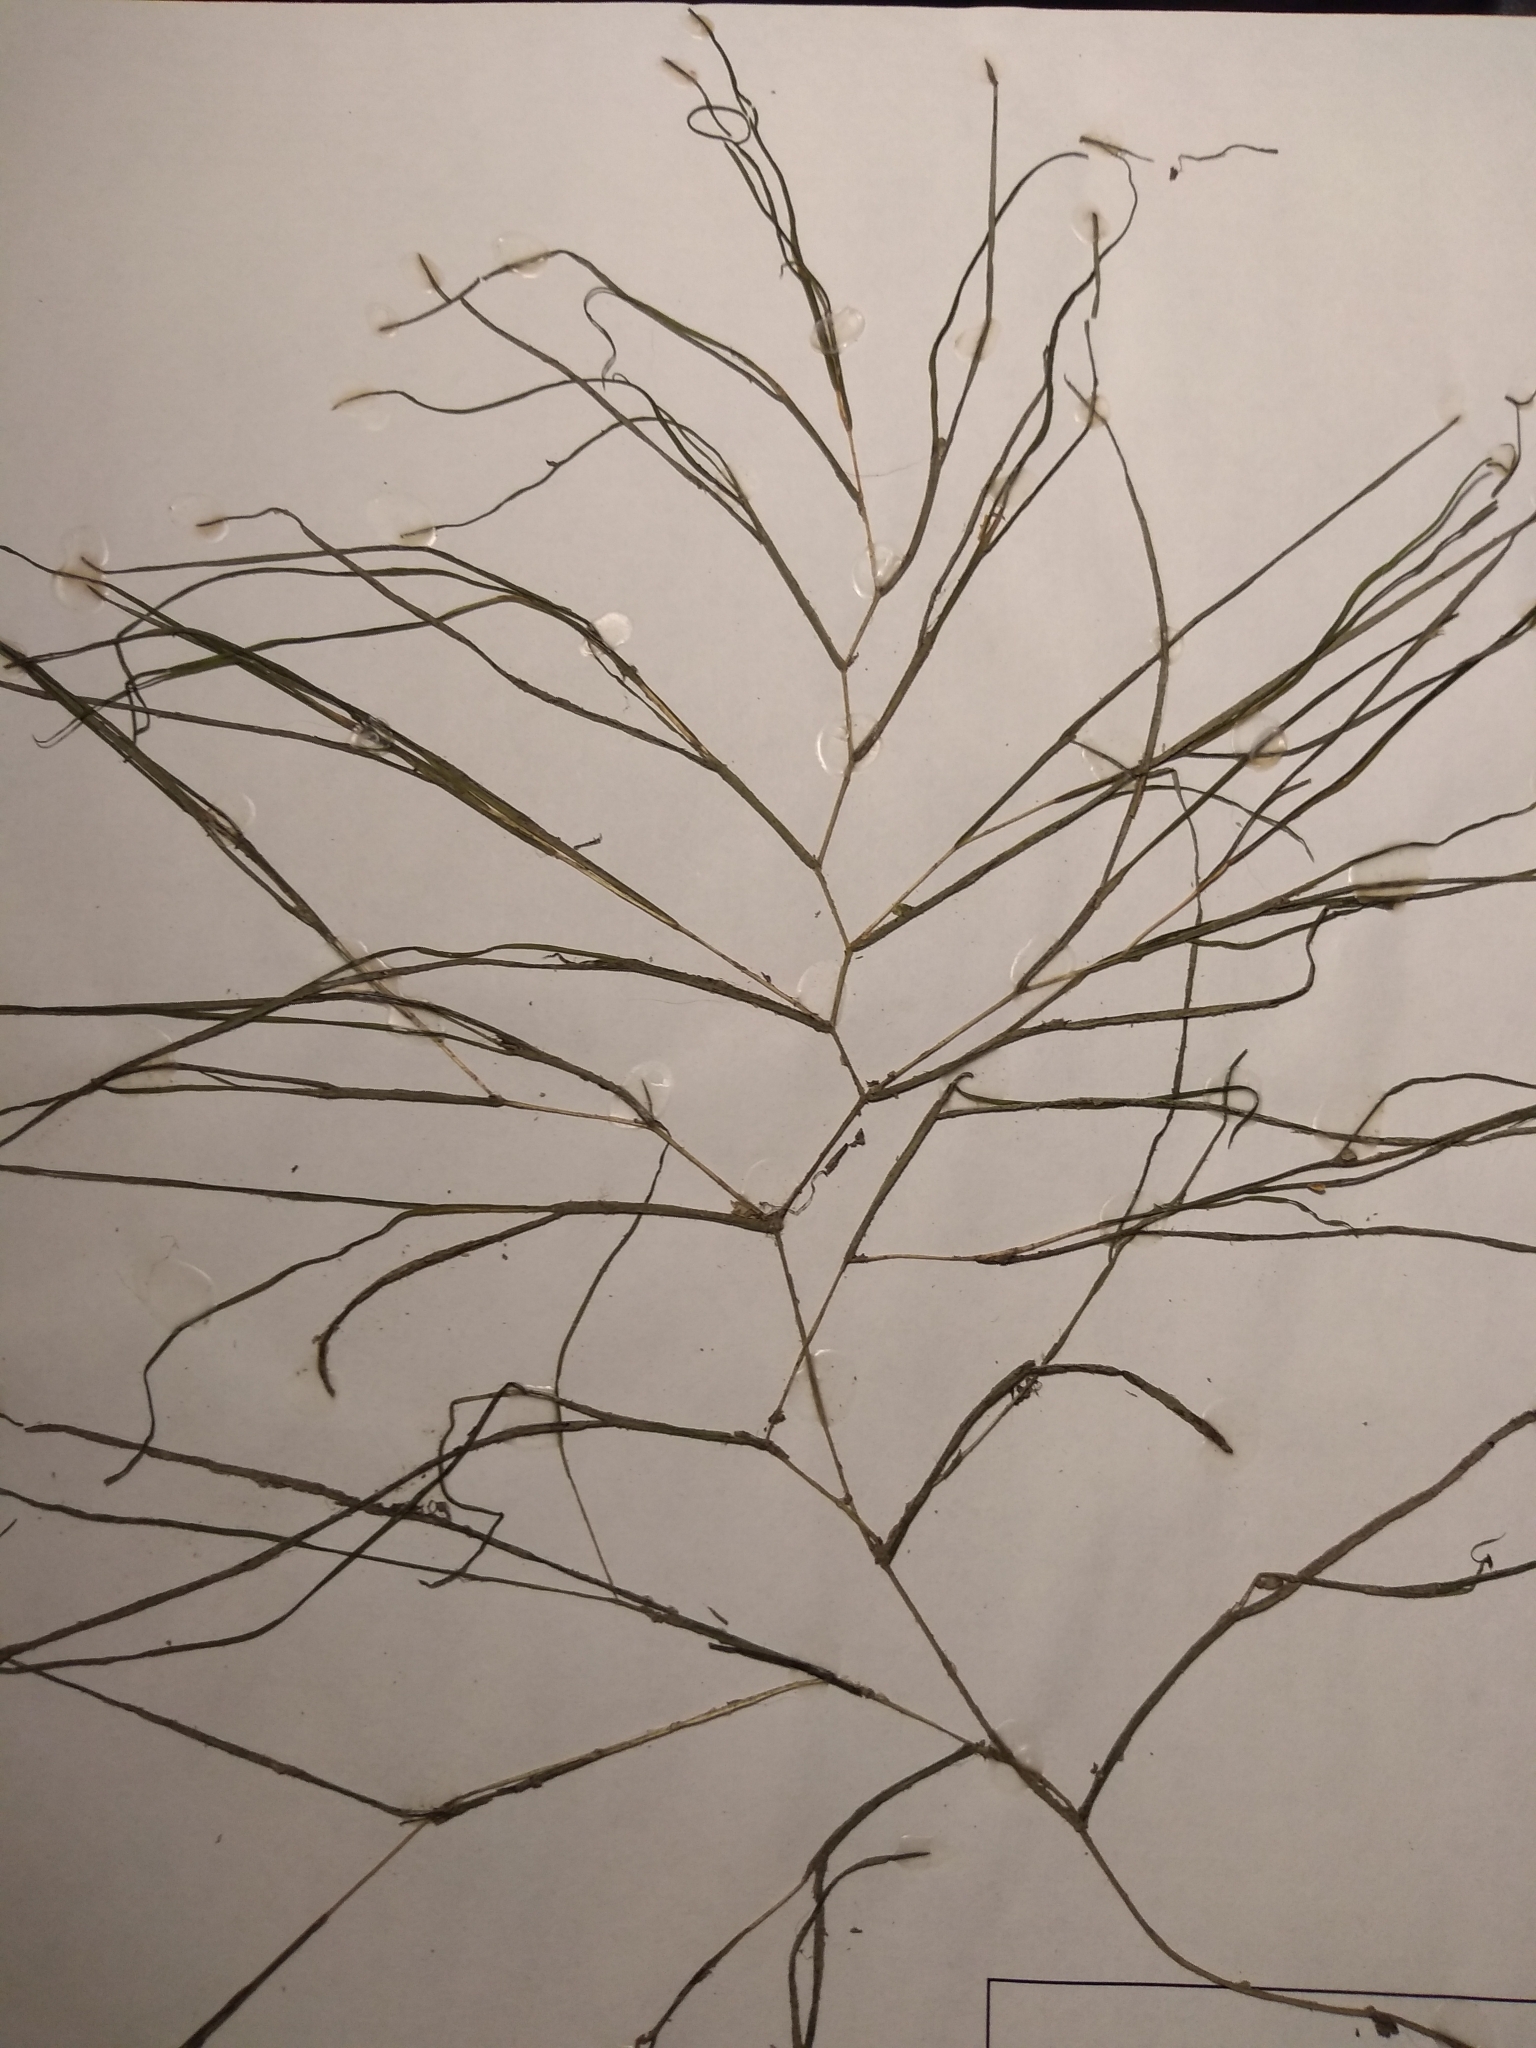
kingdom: Plantae
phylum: Tracheophyta
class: Liliopsida
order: Alismatales
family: Potamogetonaceae
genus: Stuckenia
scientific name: Stuckenia pectinata
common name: Sago pondweed
